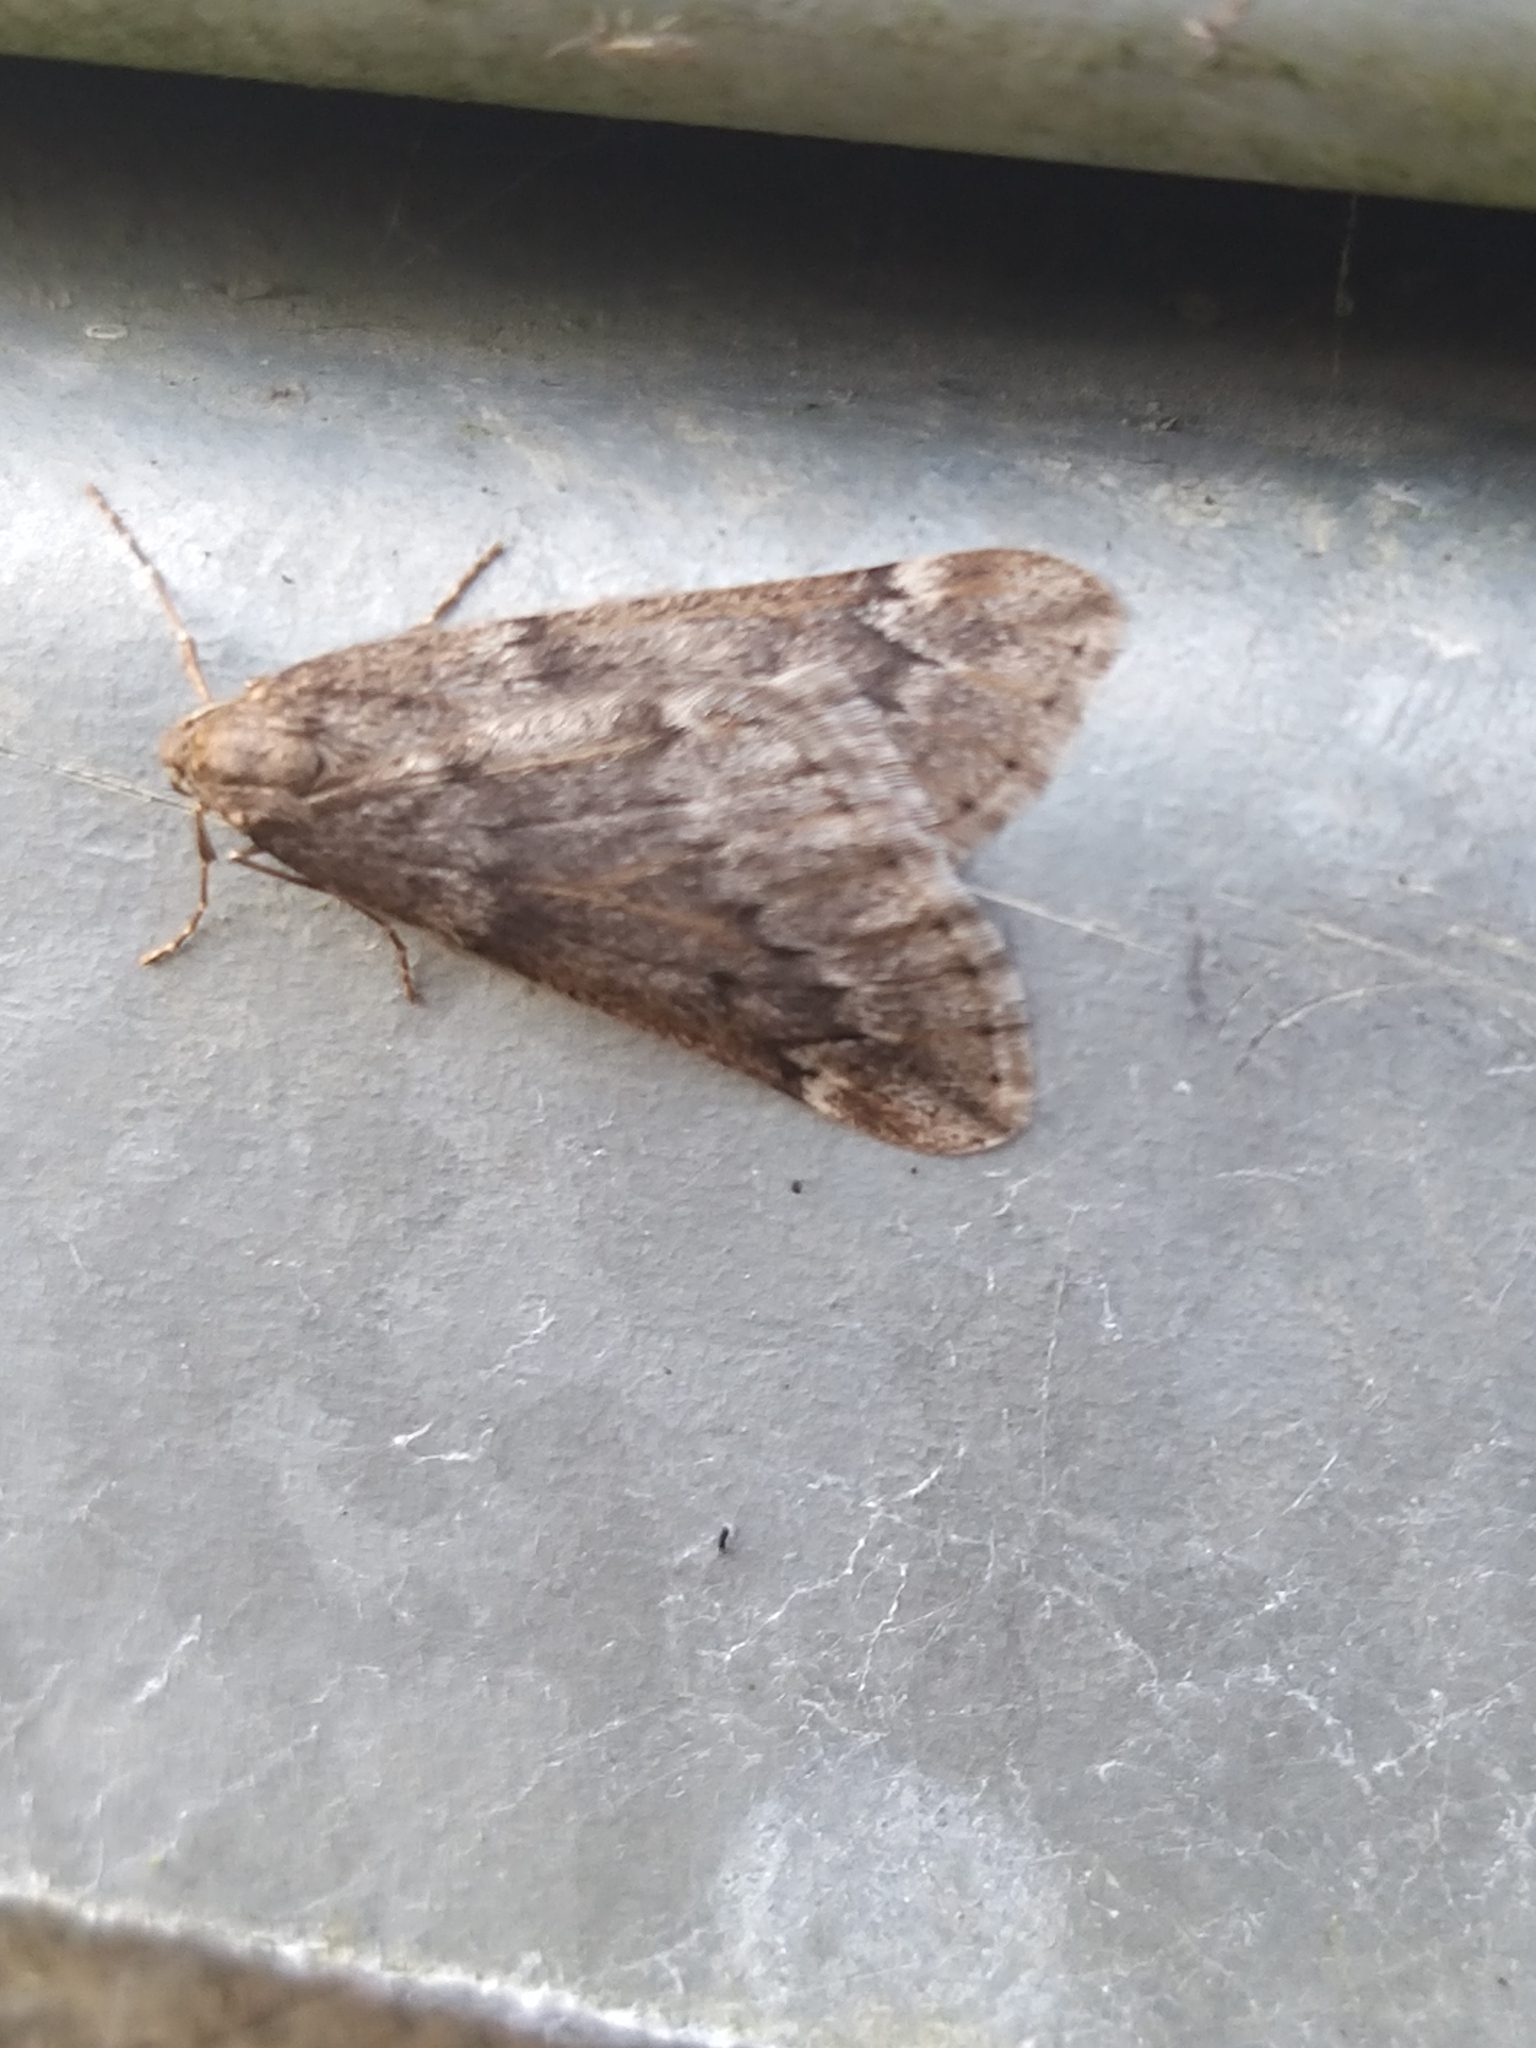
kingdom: Animalia
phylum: Arthropoda
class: Insecta
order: Lepidoptera
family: Geometridae
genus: Alsophila
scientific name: Alsophila aescularia
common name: March moth
